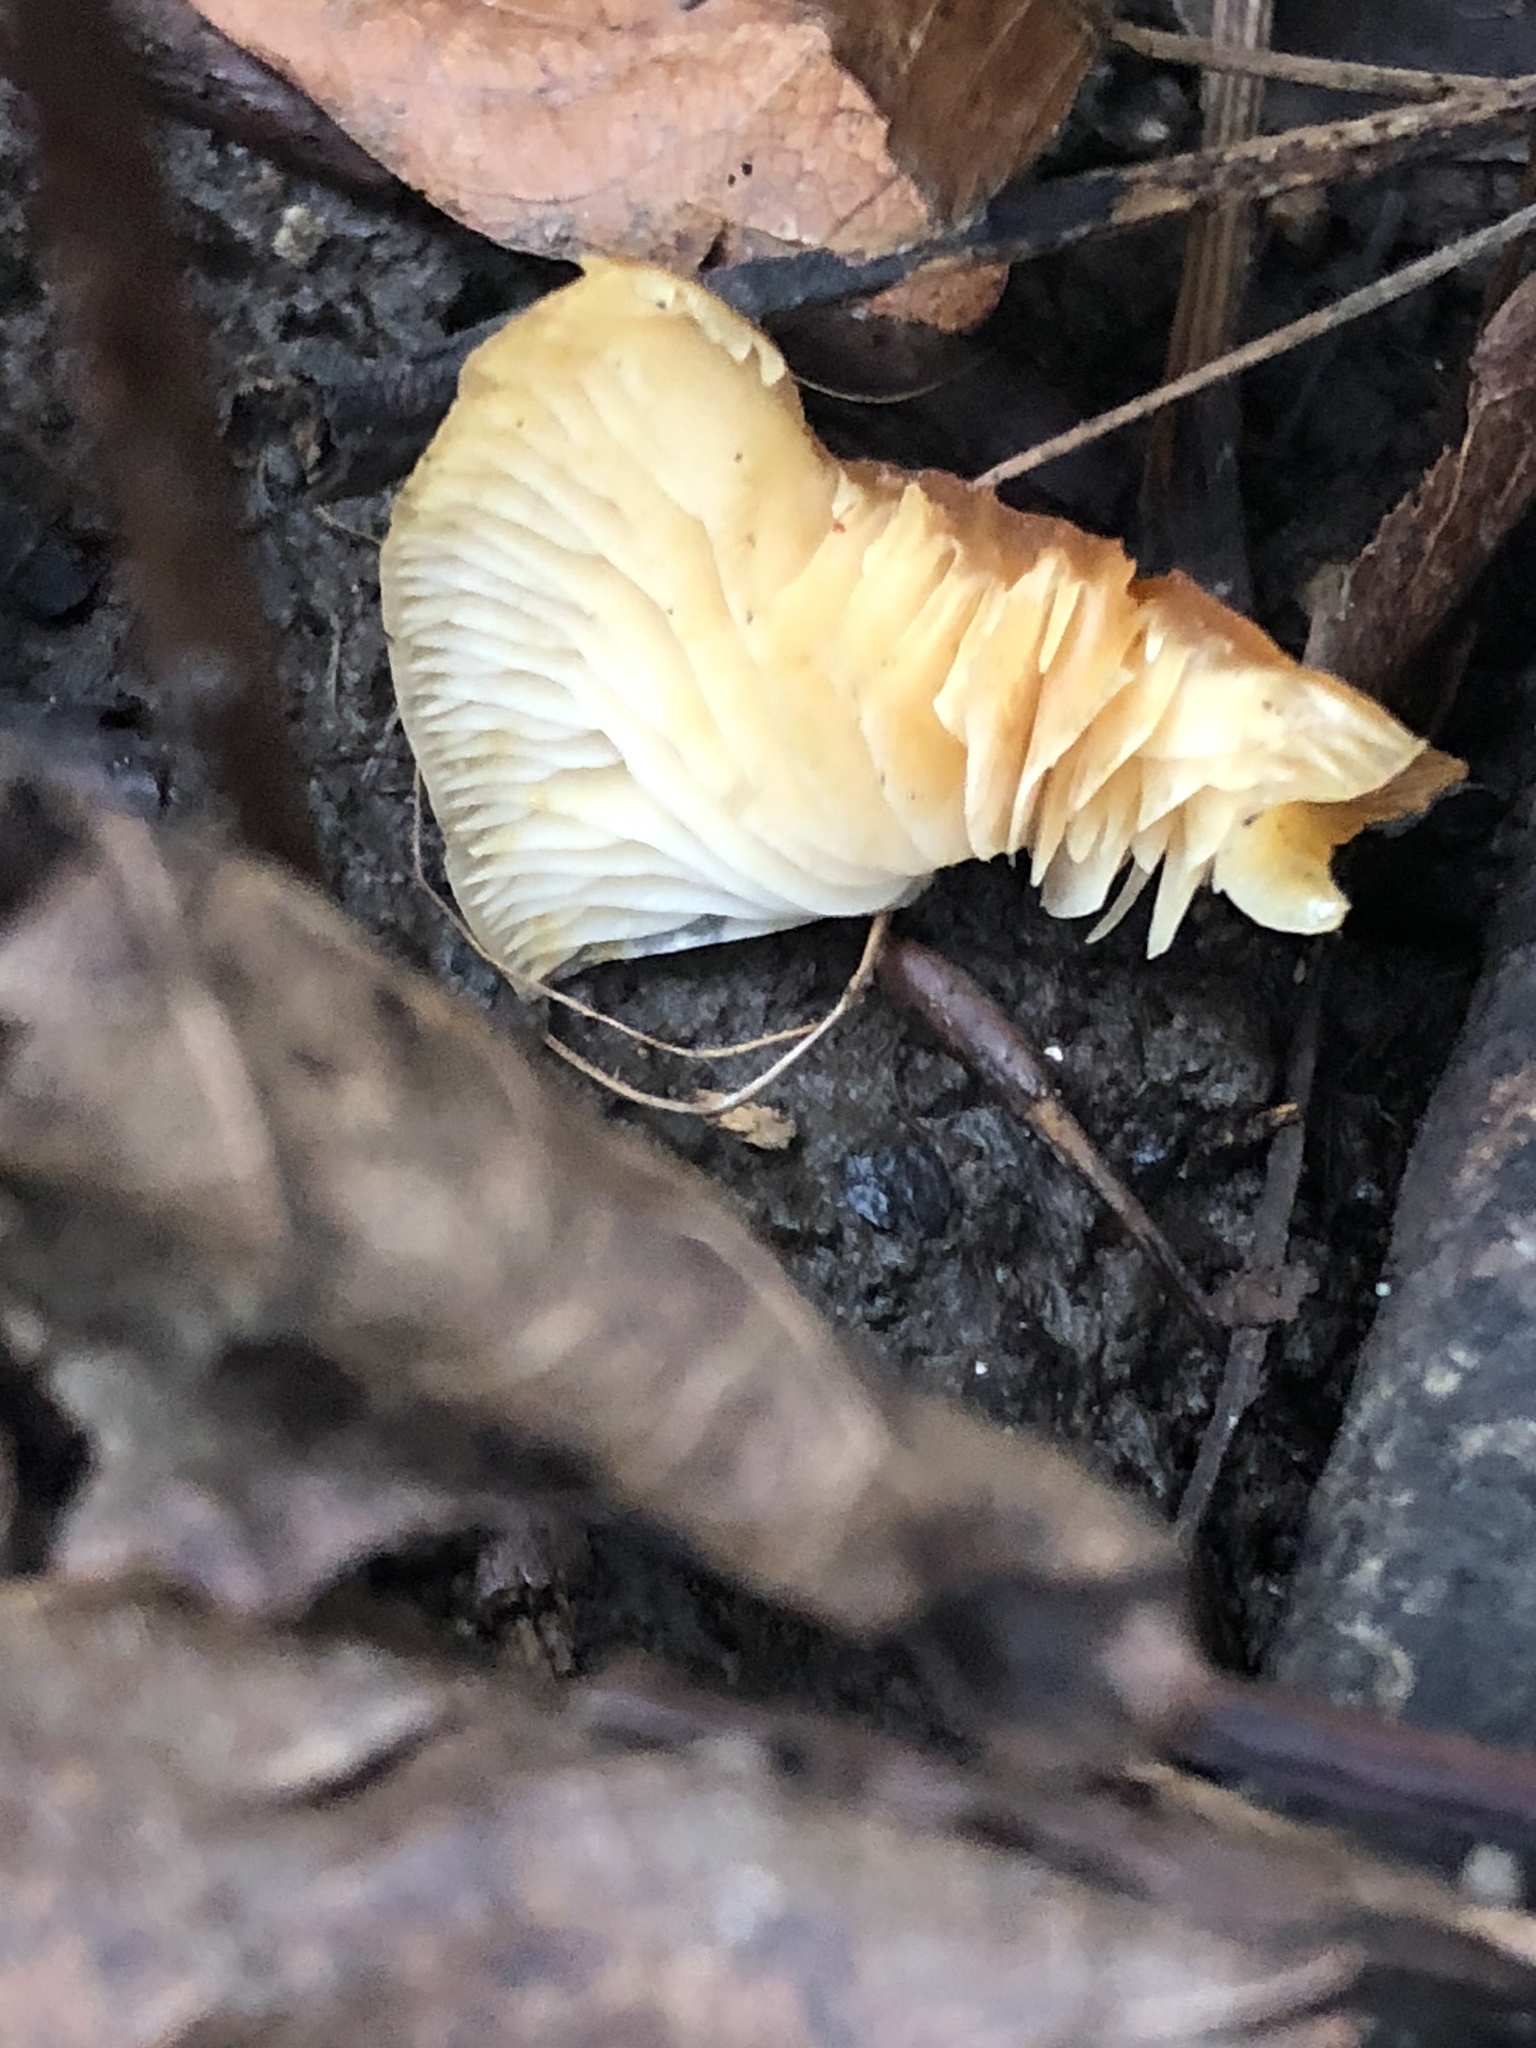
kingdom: Fungi
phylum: Basidiomycota
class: Agaricomycetes
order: Agaricales
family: Physalacriaceae
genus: Flammulina
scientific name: Flammulina
